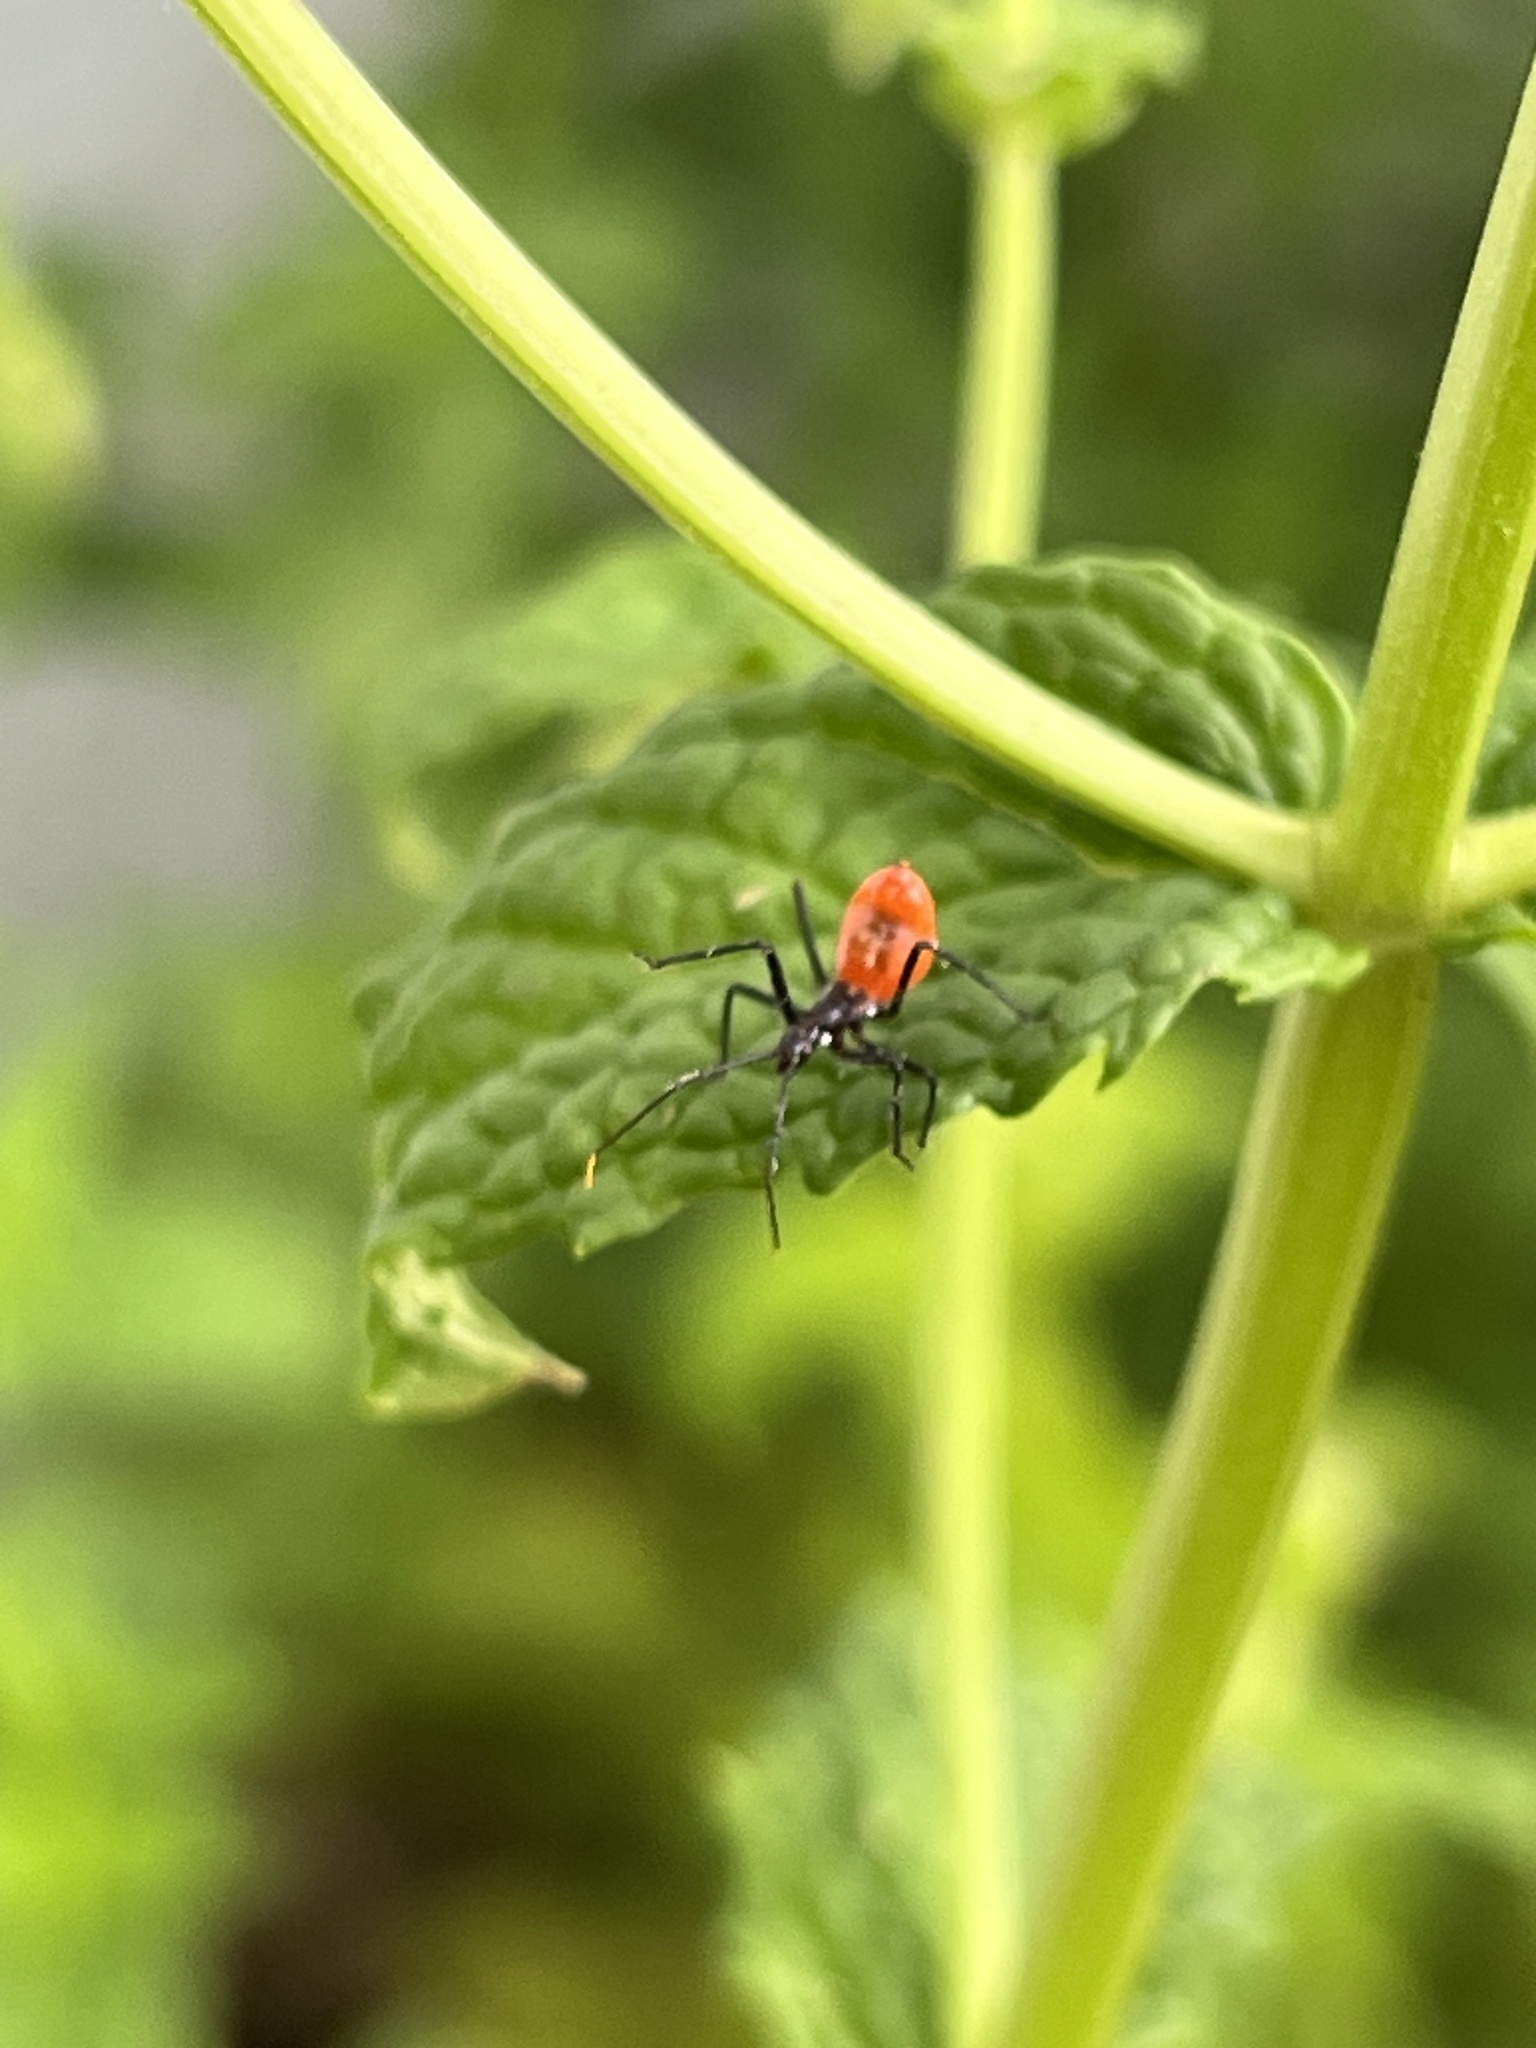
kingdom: Animalia
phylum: Arthropoda
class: Insecta
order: Hemiptera
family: Reduviidae
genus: Arilus
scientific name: Arilus cristatus
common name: North american wheel bug
